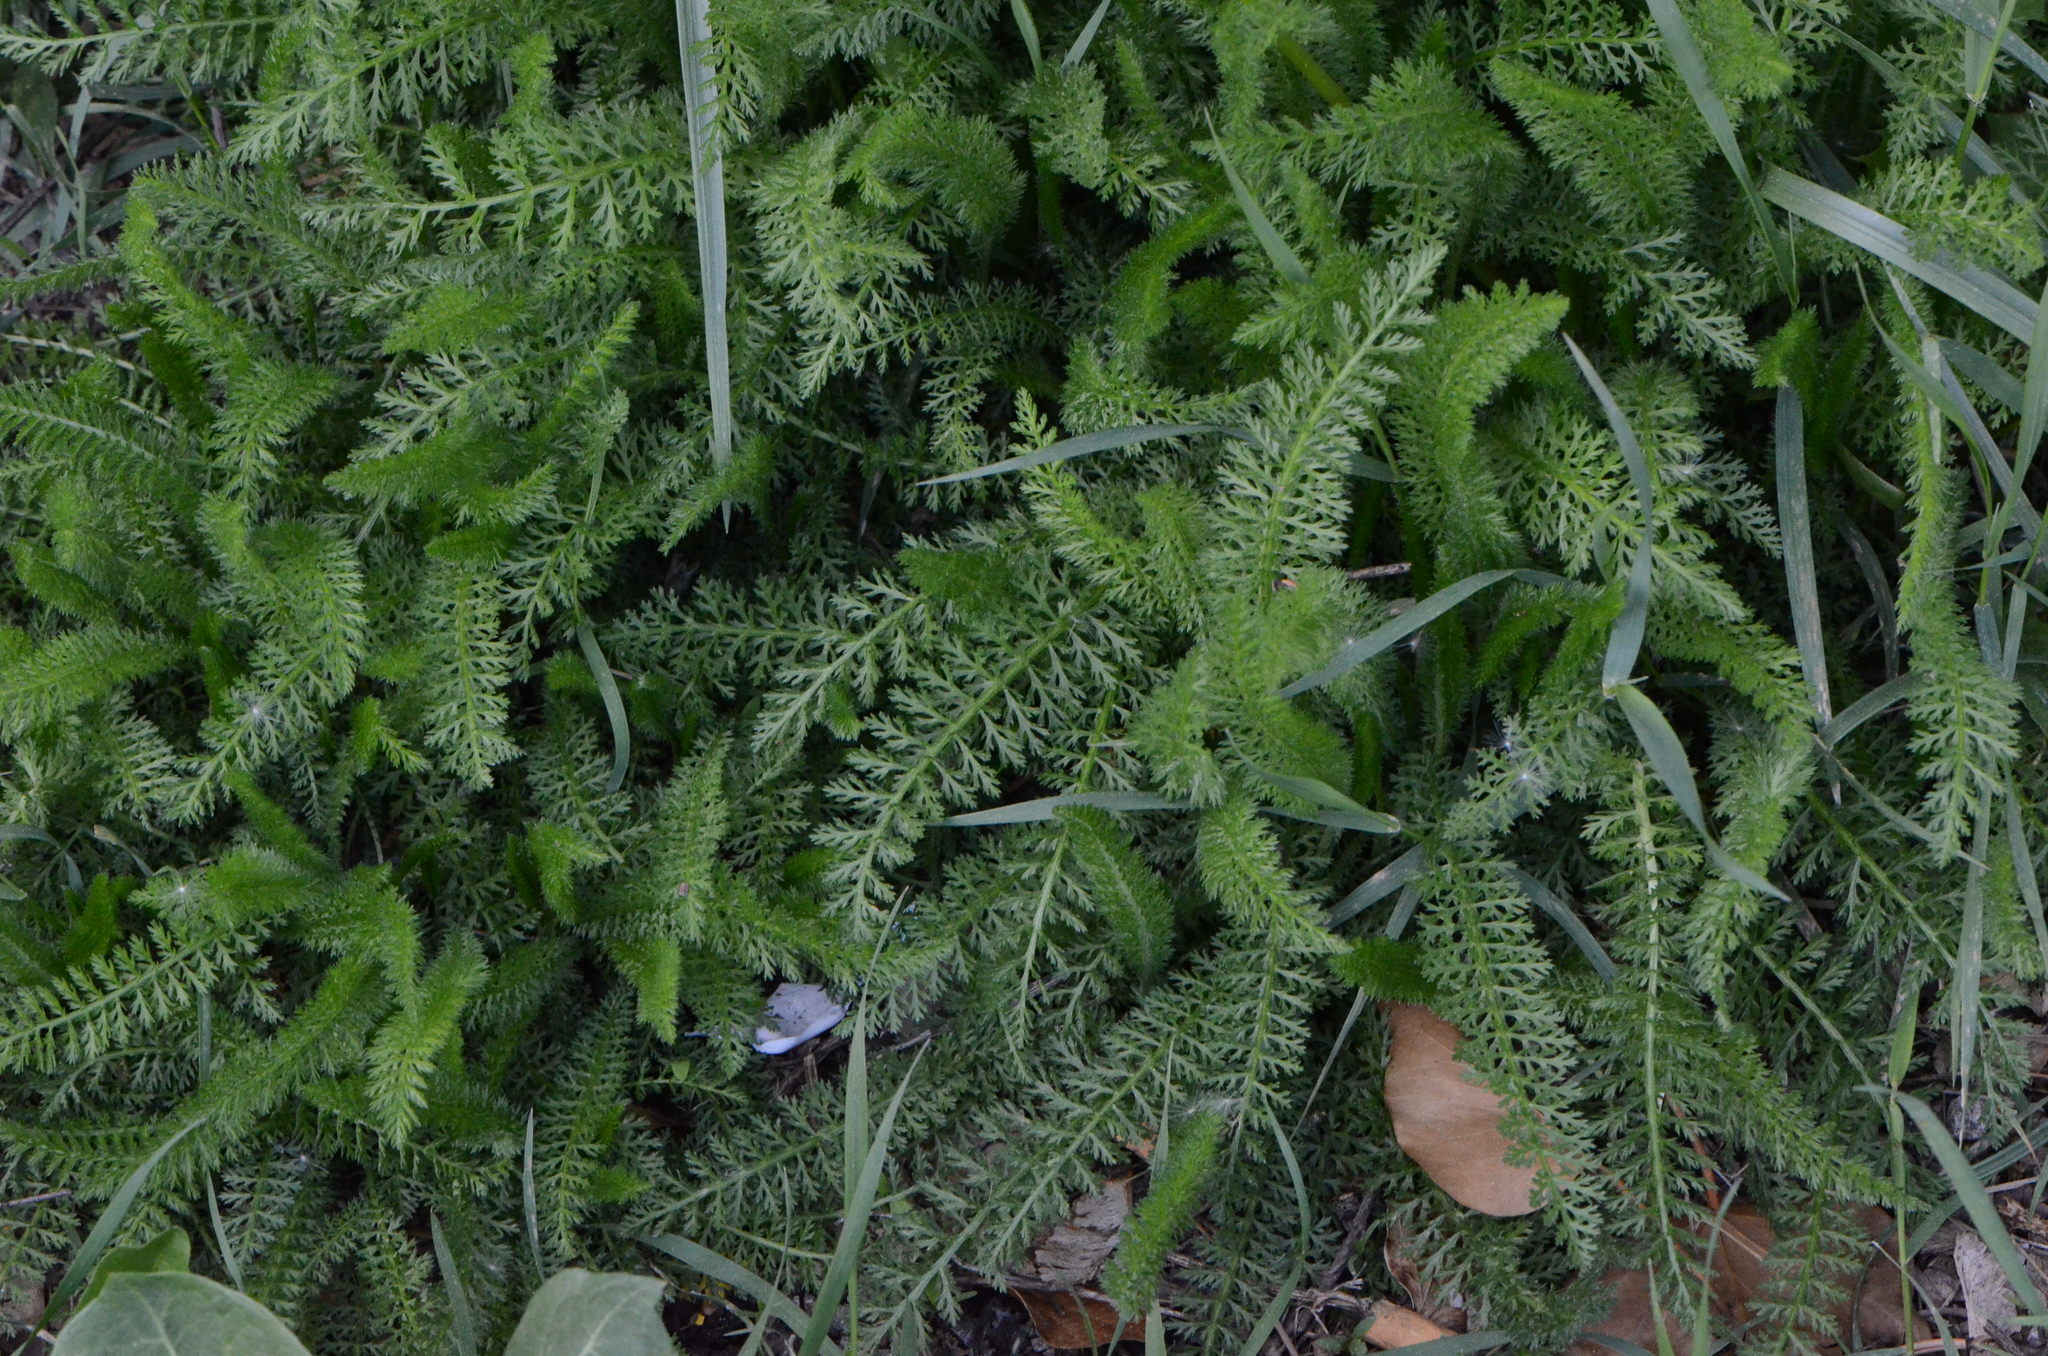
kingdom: Plantae
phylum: Tracheophyta
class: Magnoliopsida
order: Asterales
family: Asteraceae
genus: Achillea
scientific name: Achillea millefolium
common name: Yarrow
